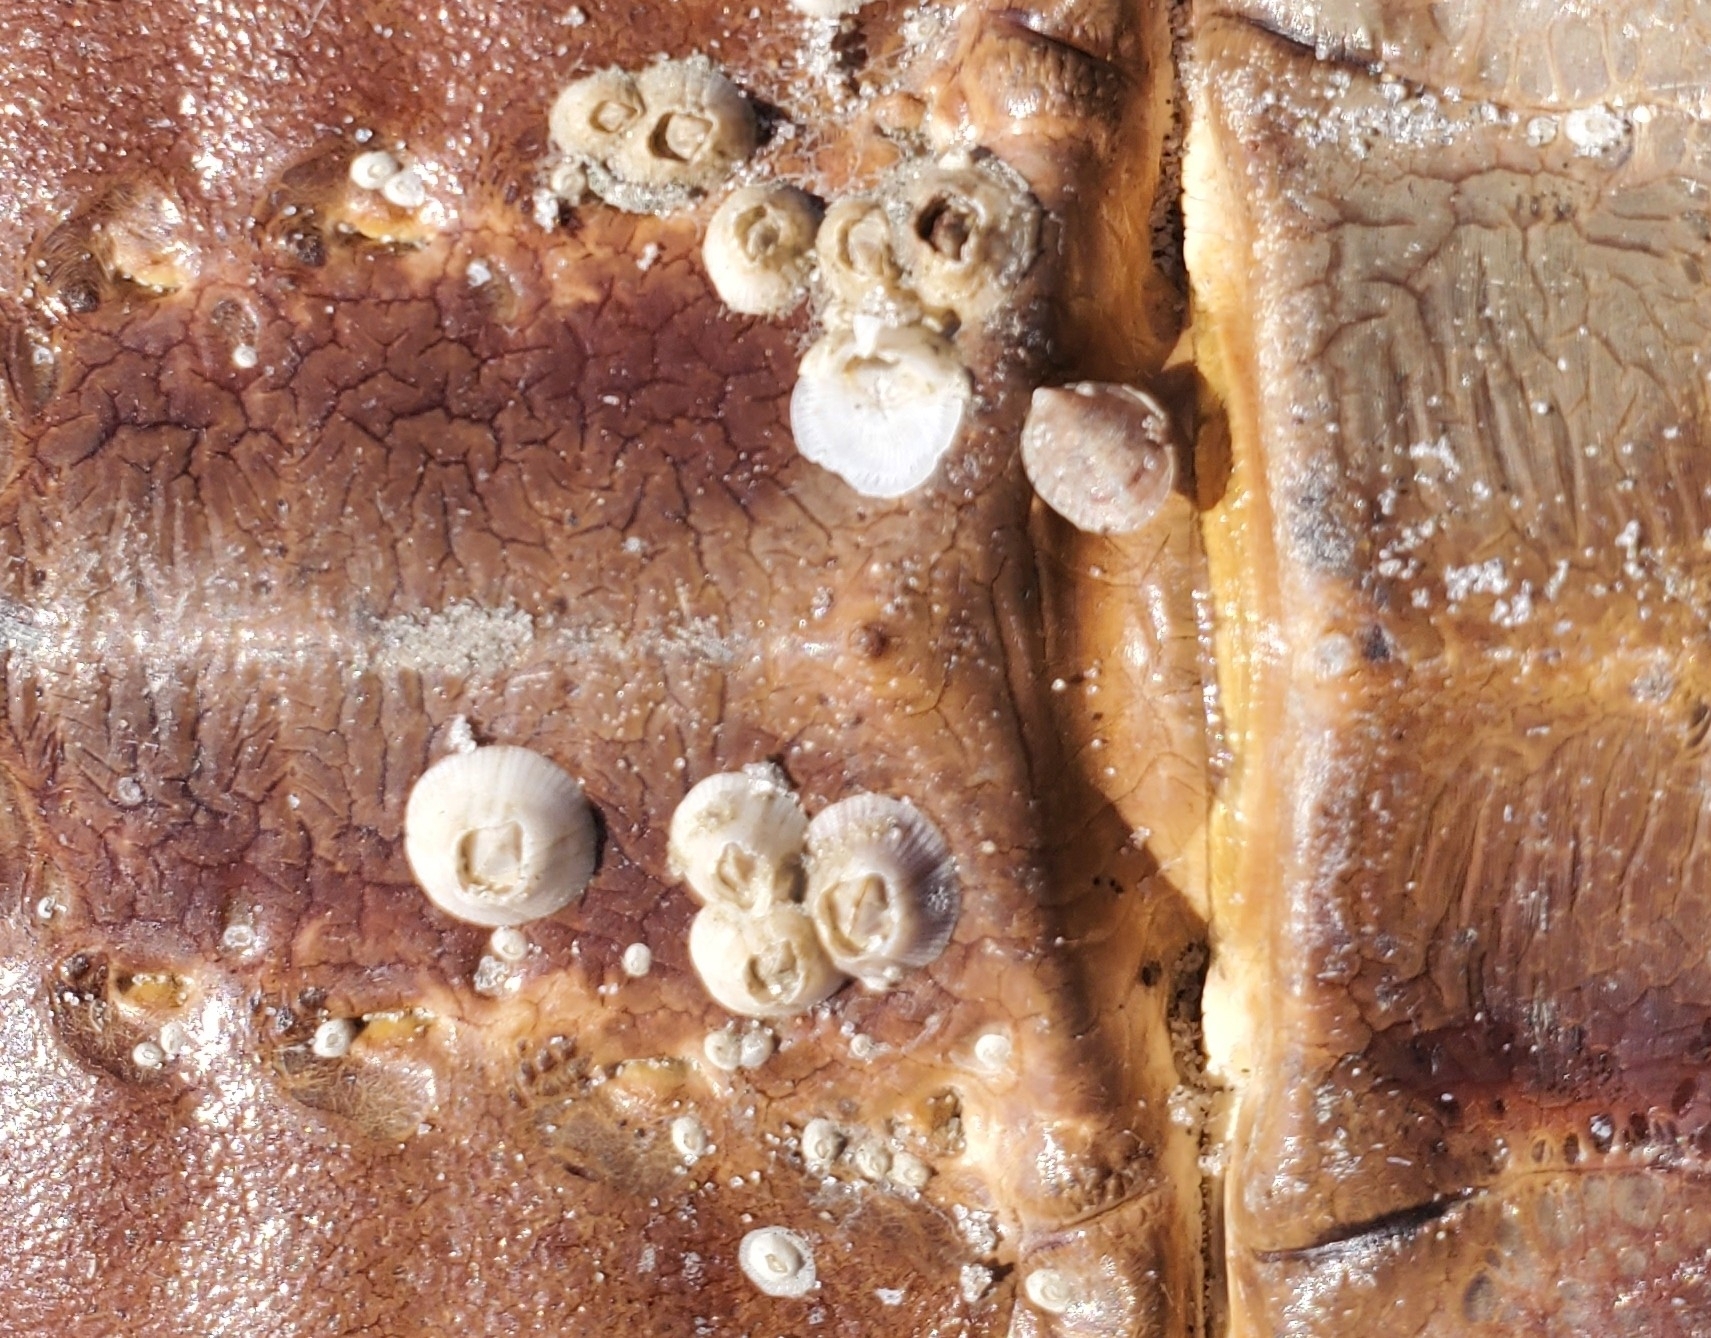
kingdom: Animalia
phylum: Arthropoda
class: Maxillopoda
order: Sessilia
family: Balanidae
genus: Amphibalanus
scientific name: Amphibalanus venustus
